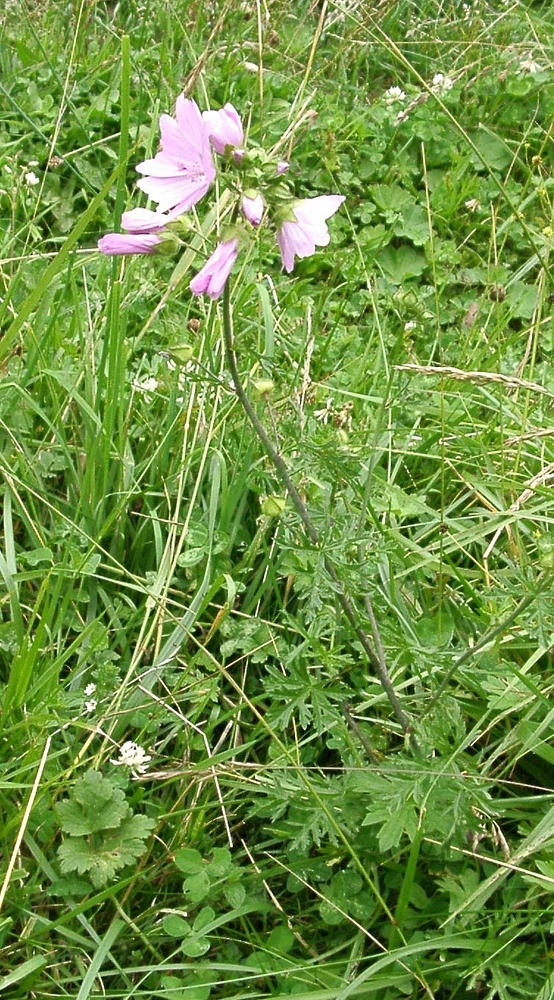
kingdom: Plantae
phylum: Tracheophyta
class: Magnoliopsida
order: Malvales
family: Malvaceae
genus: Malva
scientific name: Malva moschata
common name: Musk mallow
